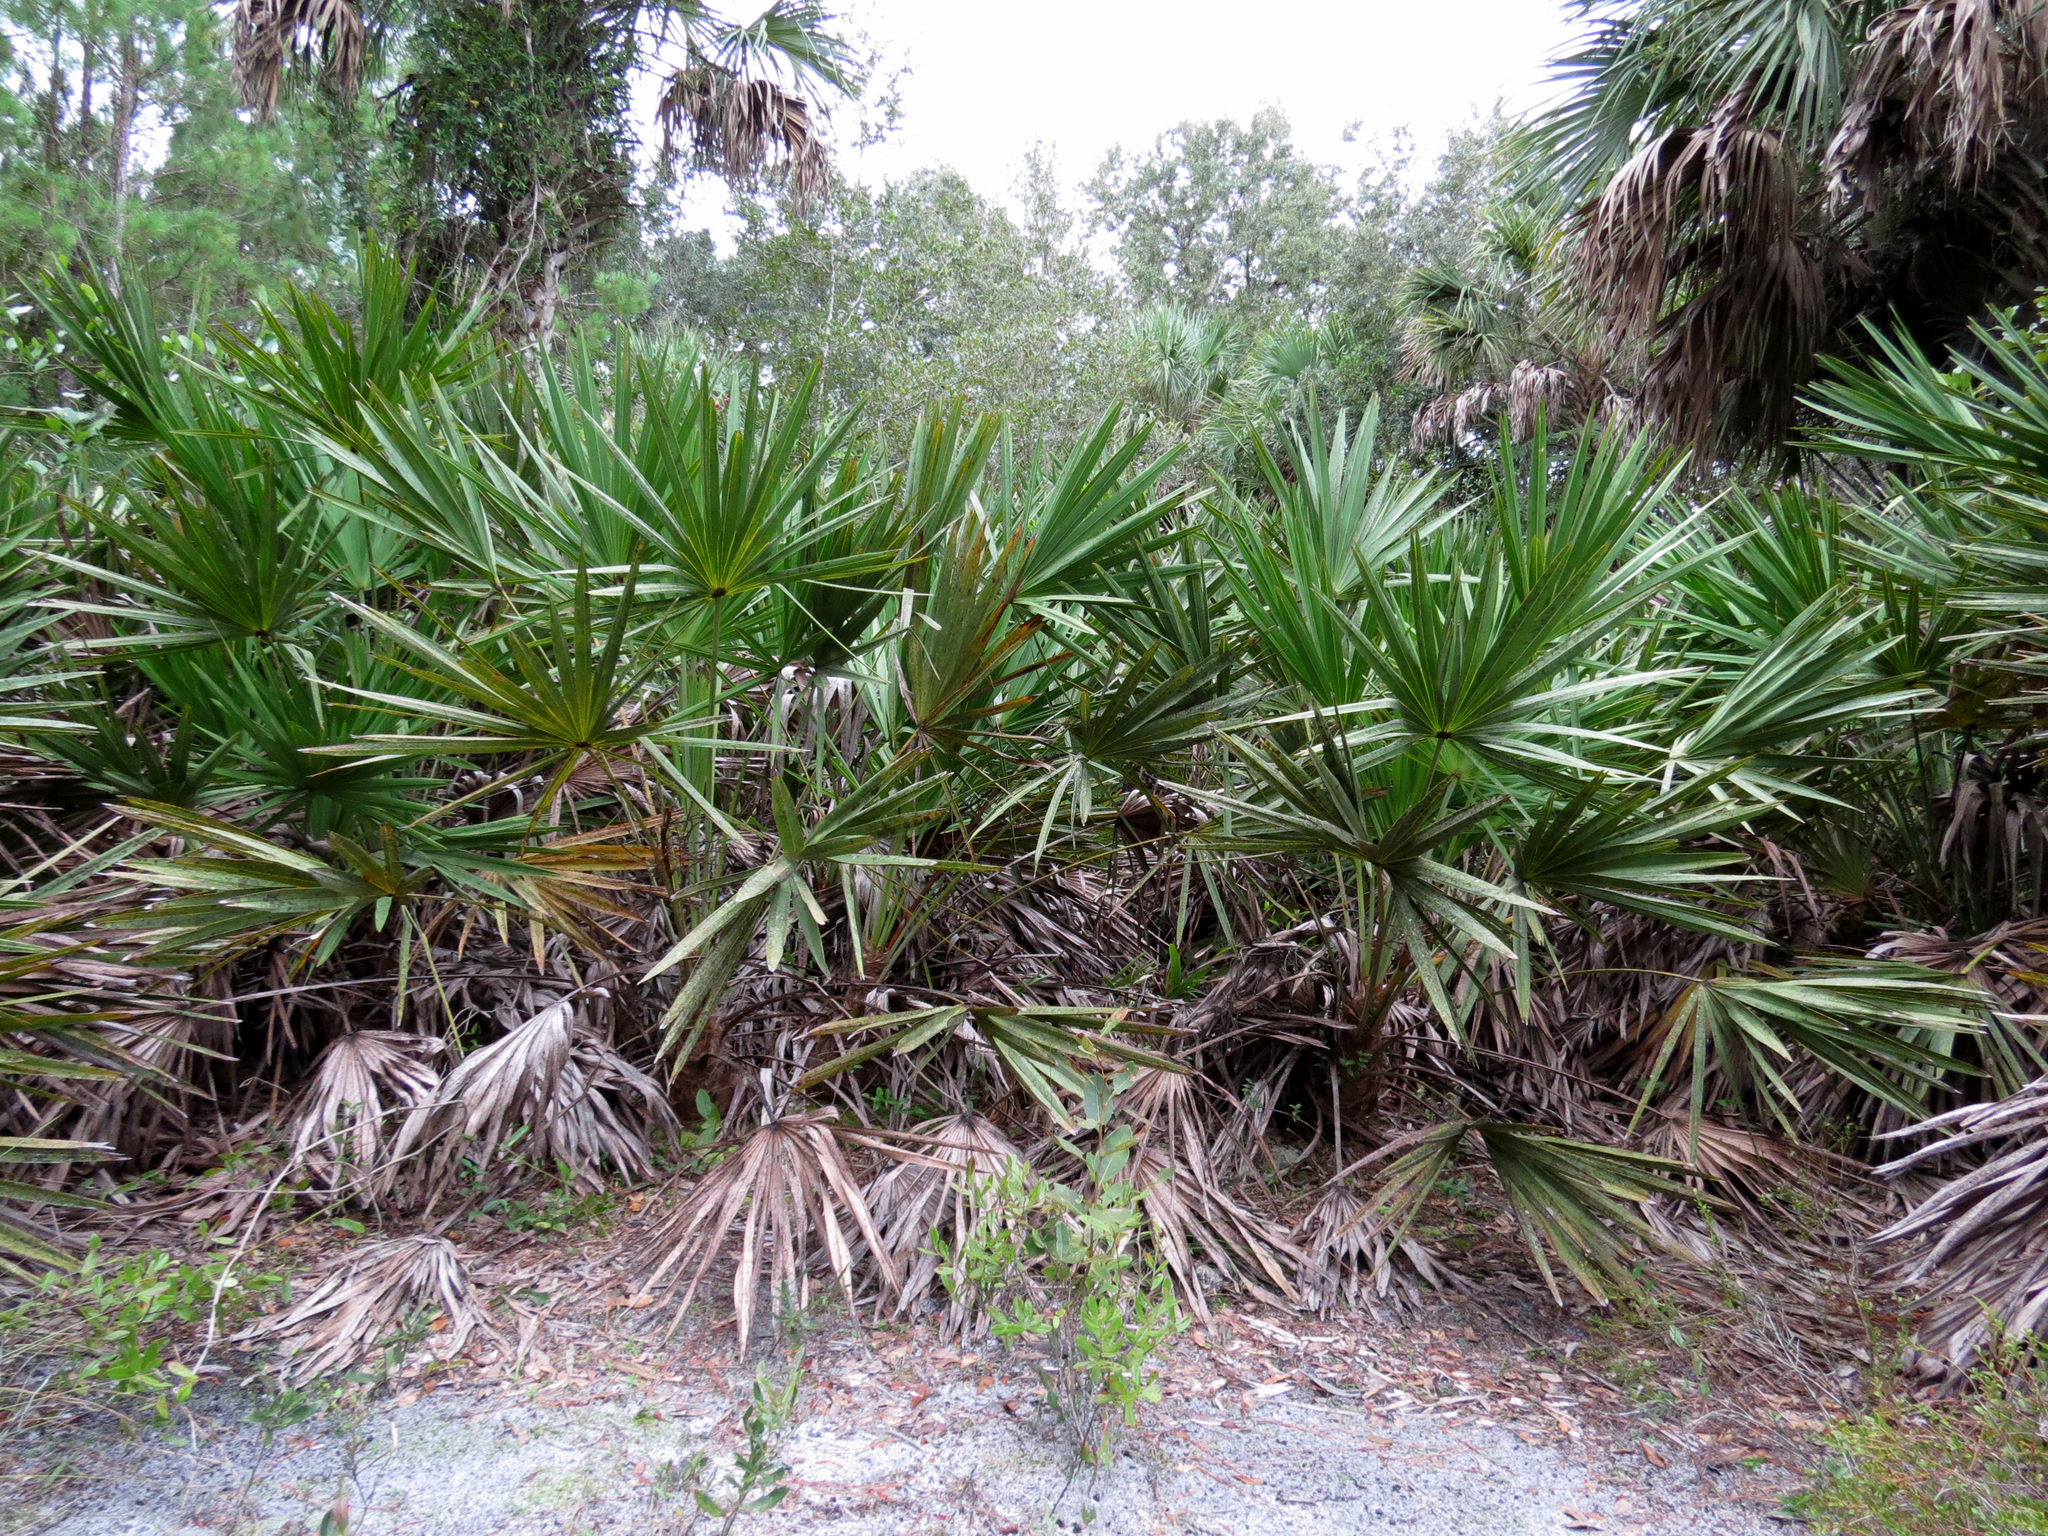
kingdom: Plantae
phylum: Tracheophyta
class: Liliopsida
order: Arecales
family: Arecaceae
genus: Serenoa
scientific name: Serenoa repens
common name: Saw-palmetto
